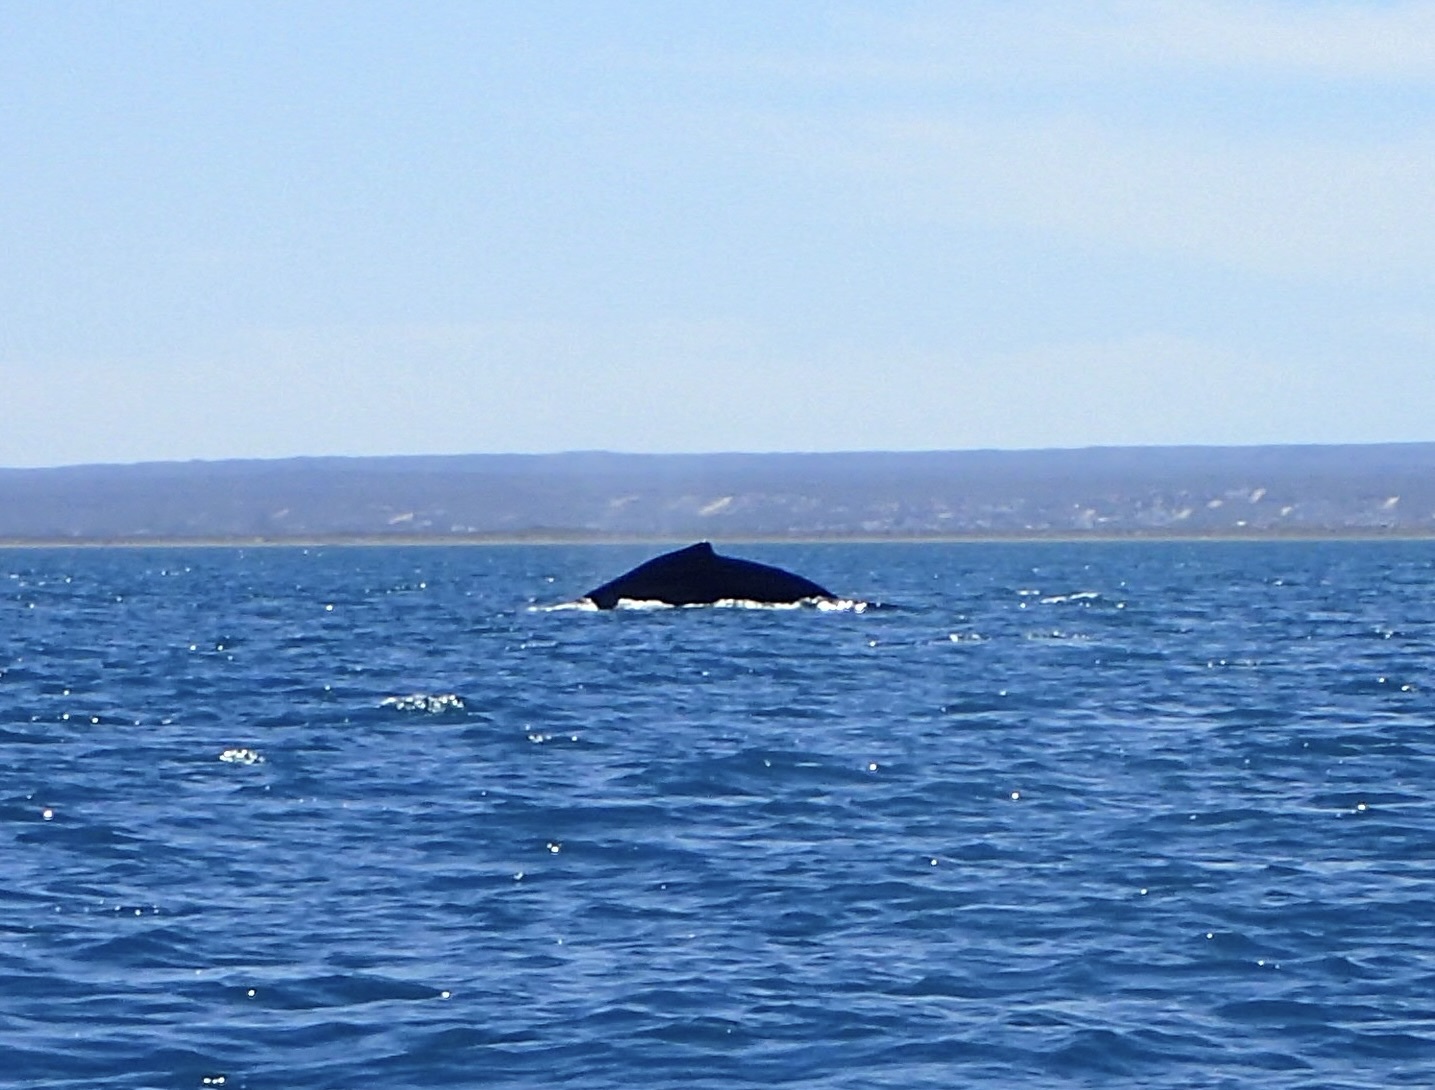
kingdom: Animalia
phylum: Chordata
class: Mammalia
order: Cetacea
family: Balaenopteridae
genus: Megaptera
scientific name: Megaptera novaeangliae
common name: Humpback whale
